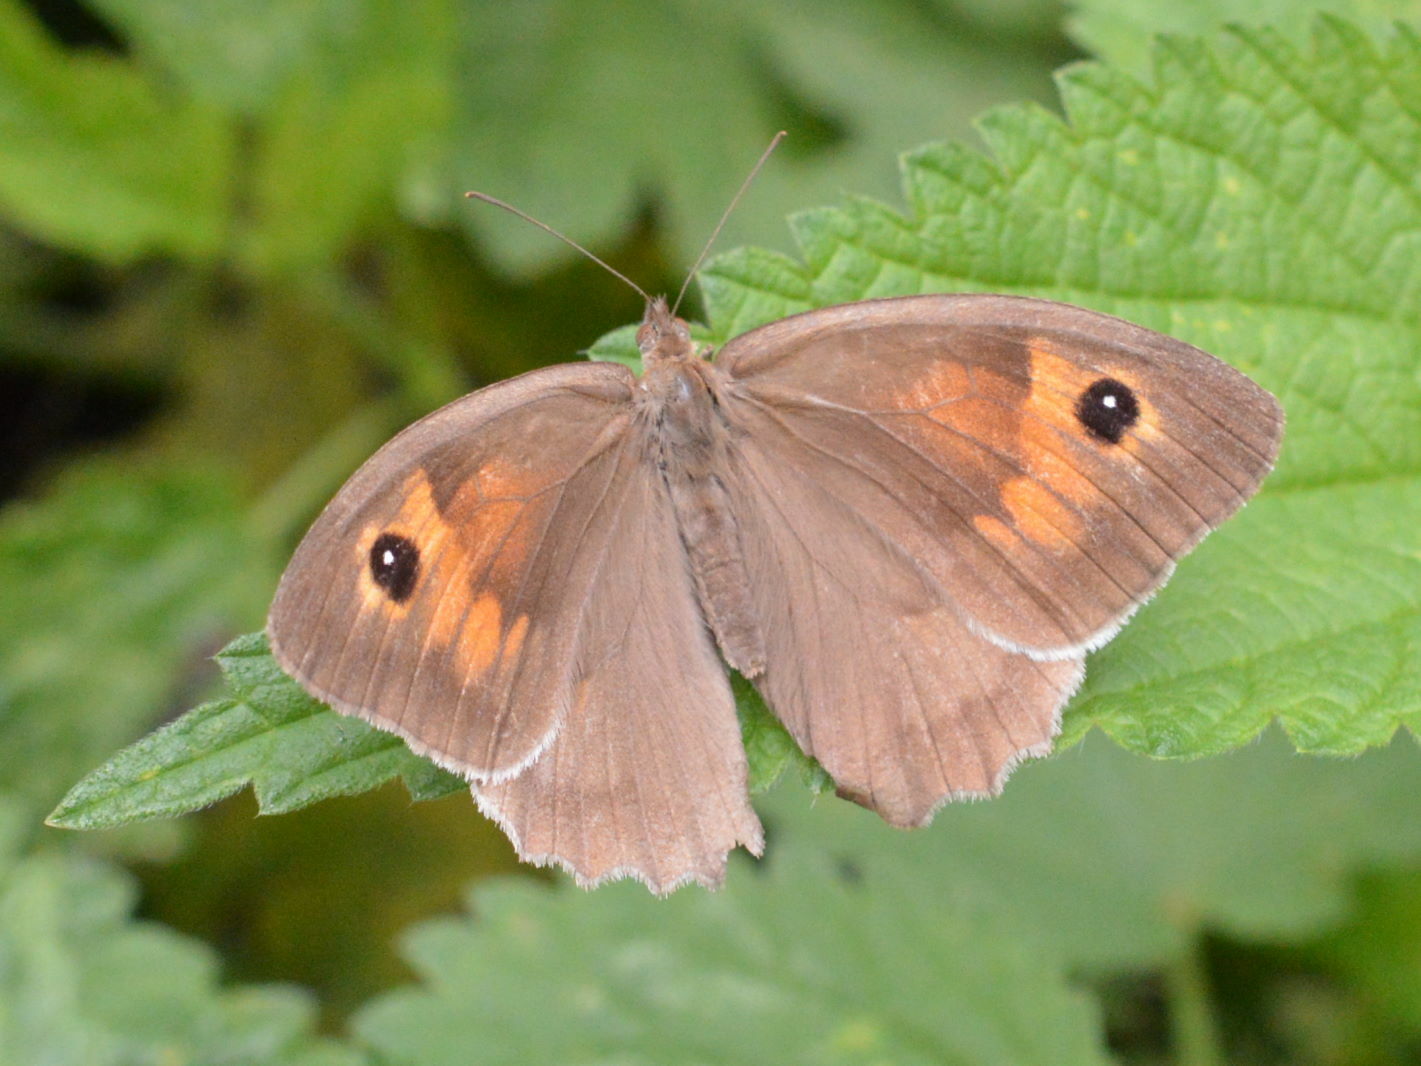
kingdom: Animalia
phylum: Arthropoda
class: Insecta
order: Lepidoptera
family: Nymphalidae
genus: Maniola
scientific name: Maniola jurtina
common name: Meadow brown
